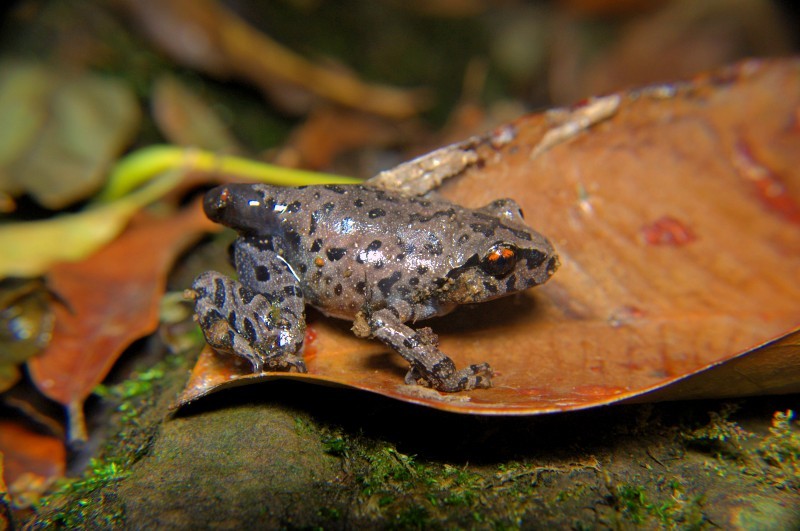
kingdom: Animalia
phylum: Chordata
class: Amphibia
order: Anura
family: Megophryidae
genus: Leptobrachium
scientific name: Leptobrachium smithi
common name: Smith's litter frog
